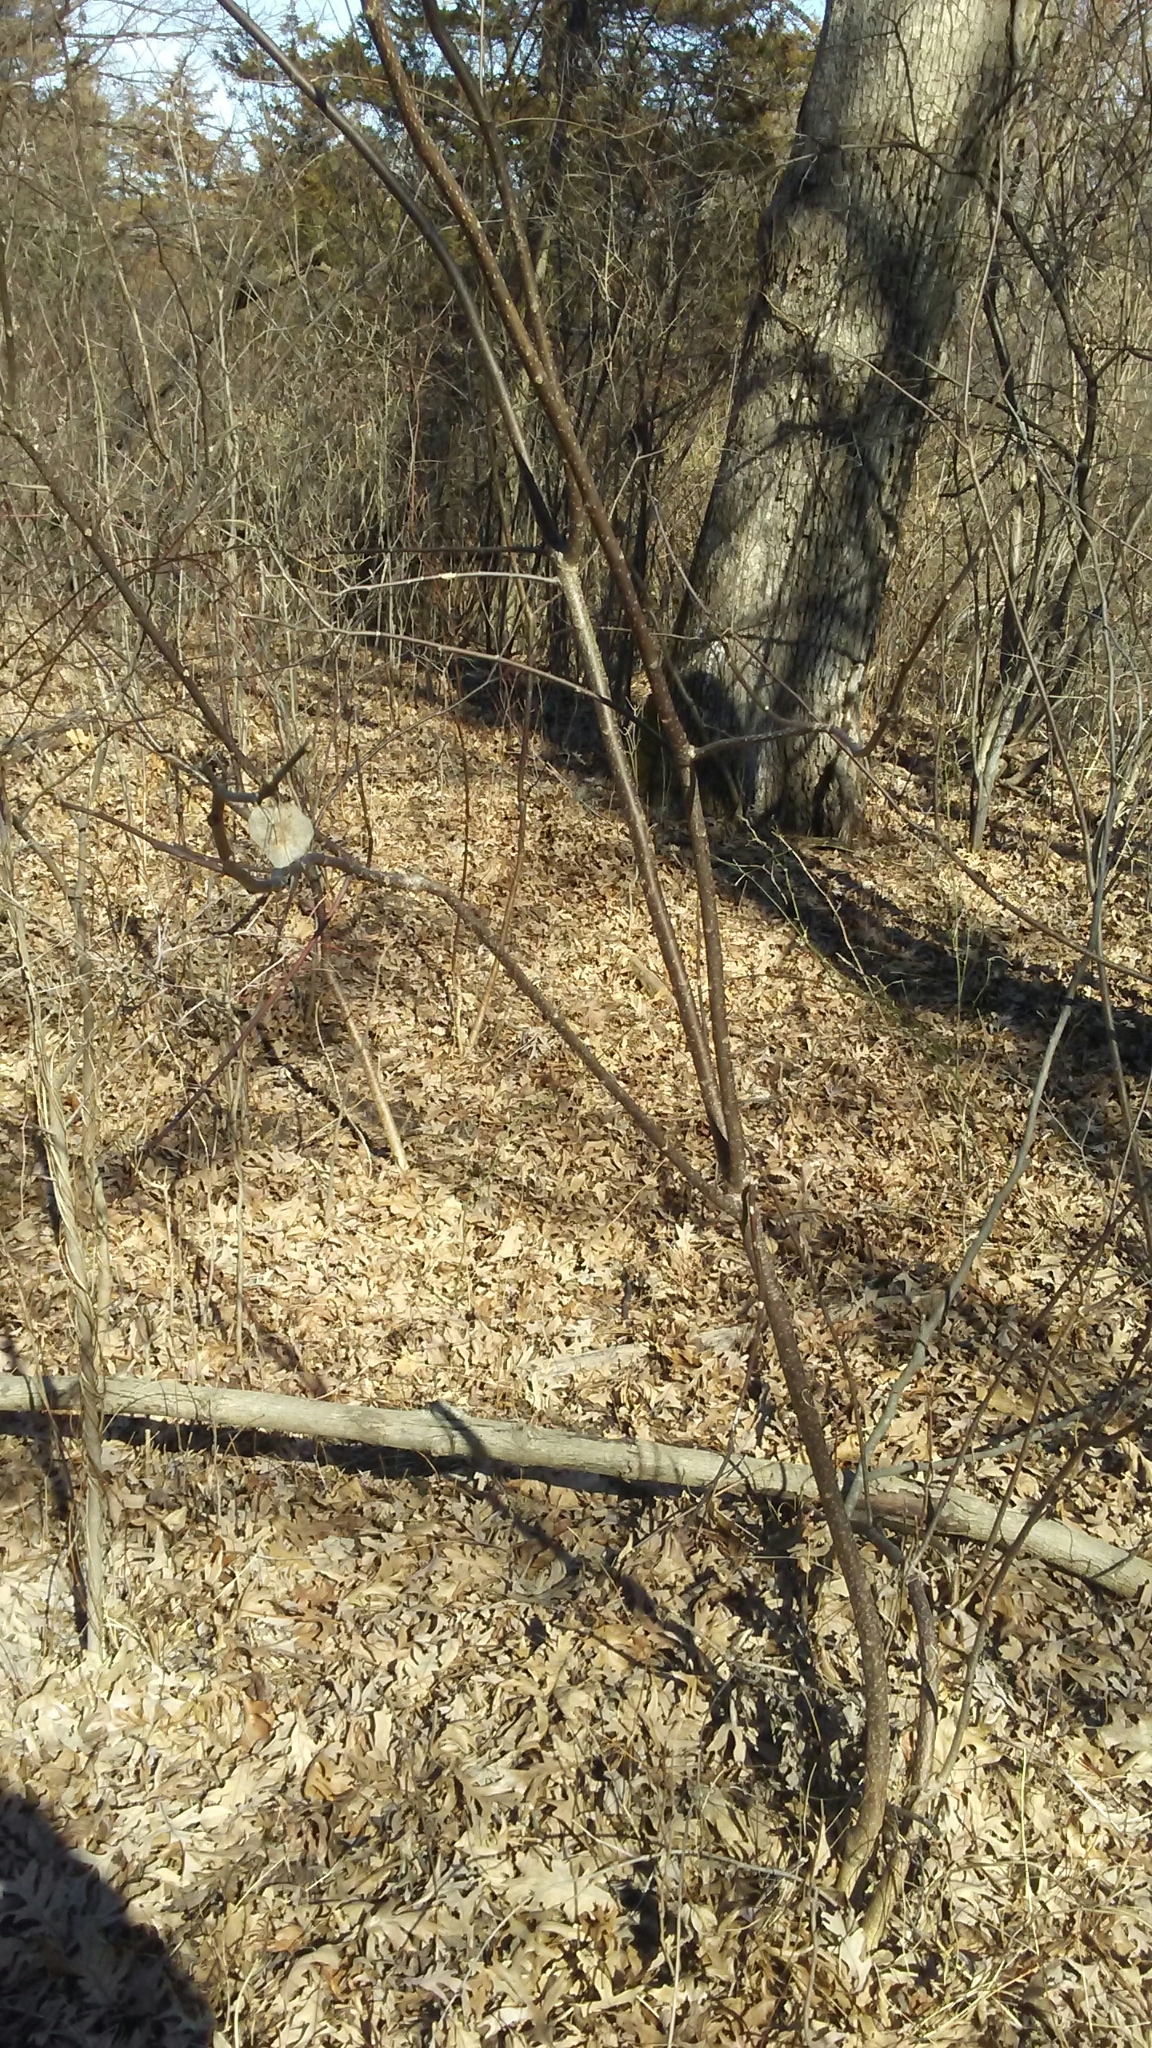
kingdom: Plantae
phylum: Tracheophyta
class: Magnoliopsida
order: Sapindales
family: Rutaceae
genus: Ptelea
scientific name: Ptelea trifoliata
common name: Common hop-tree
